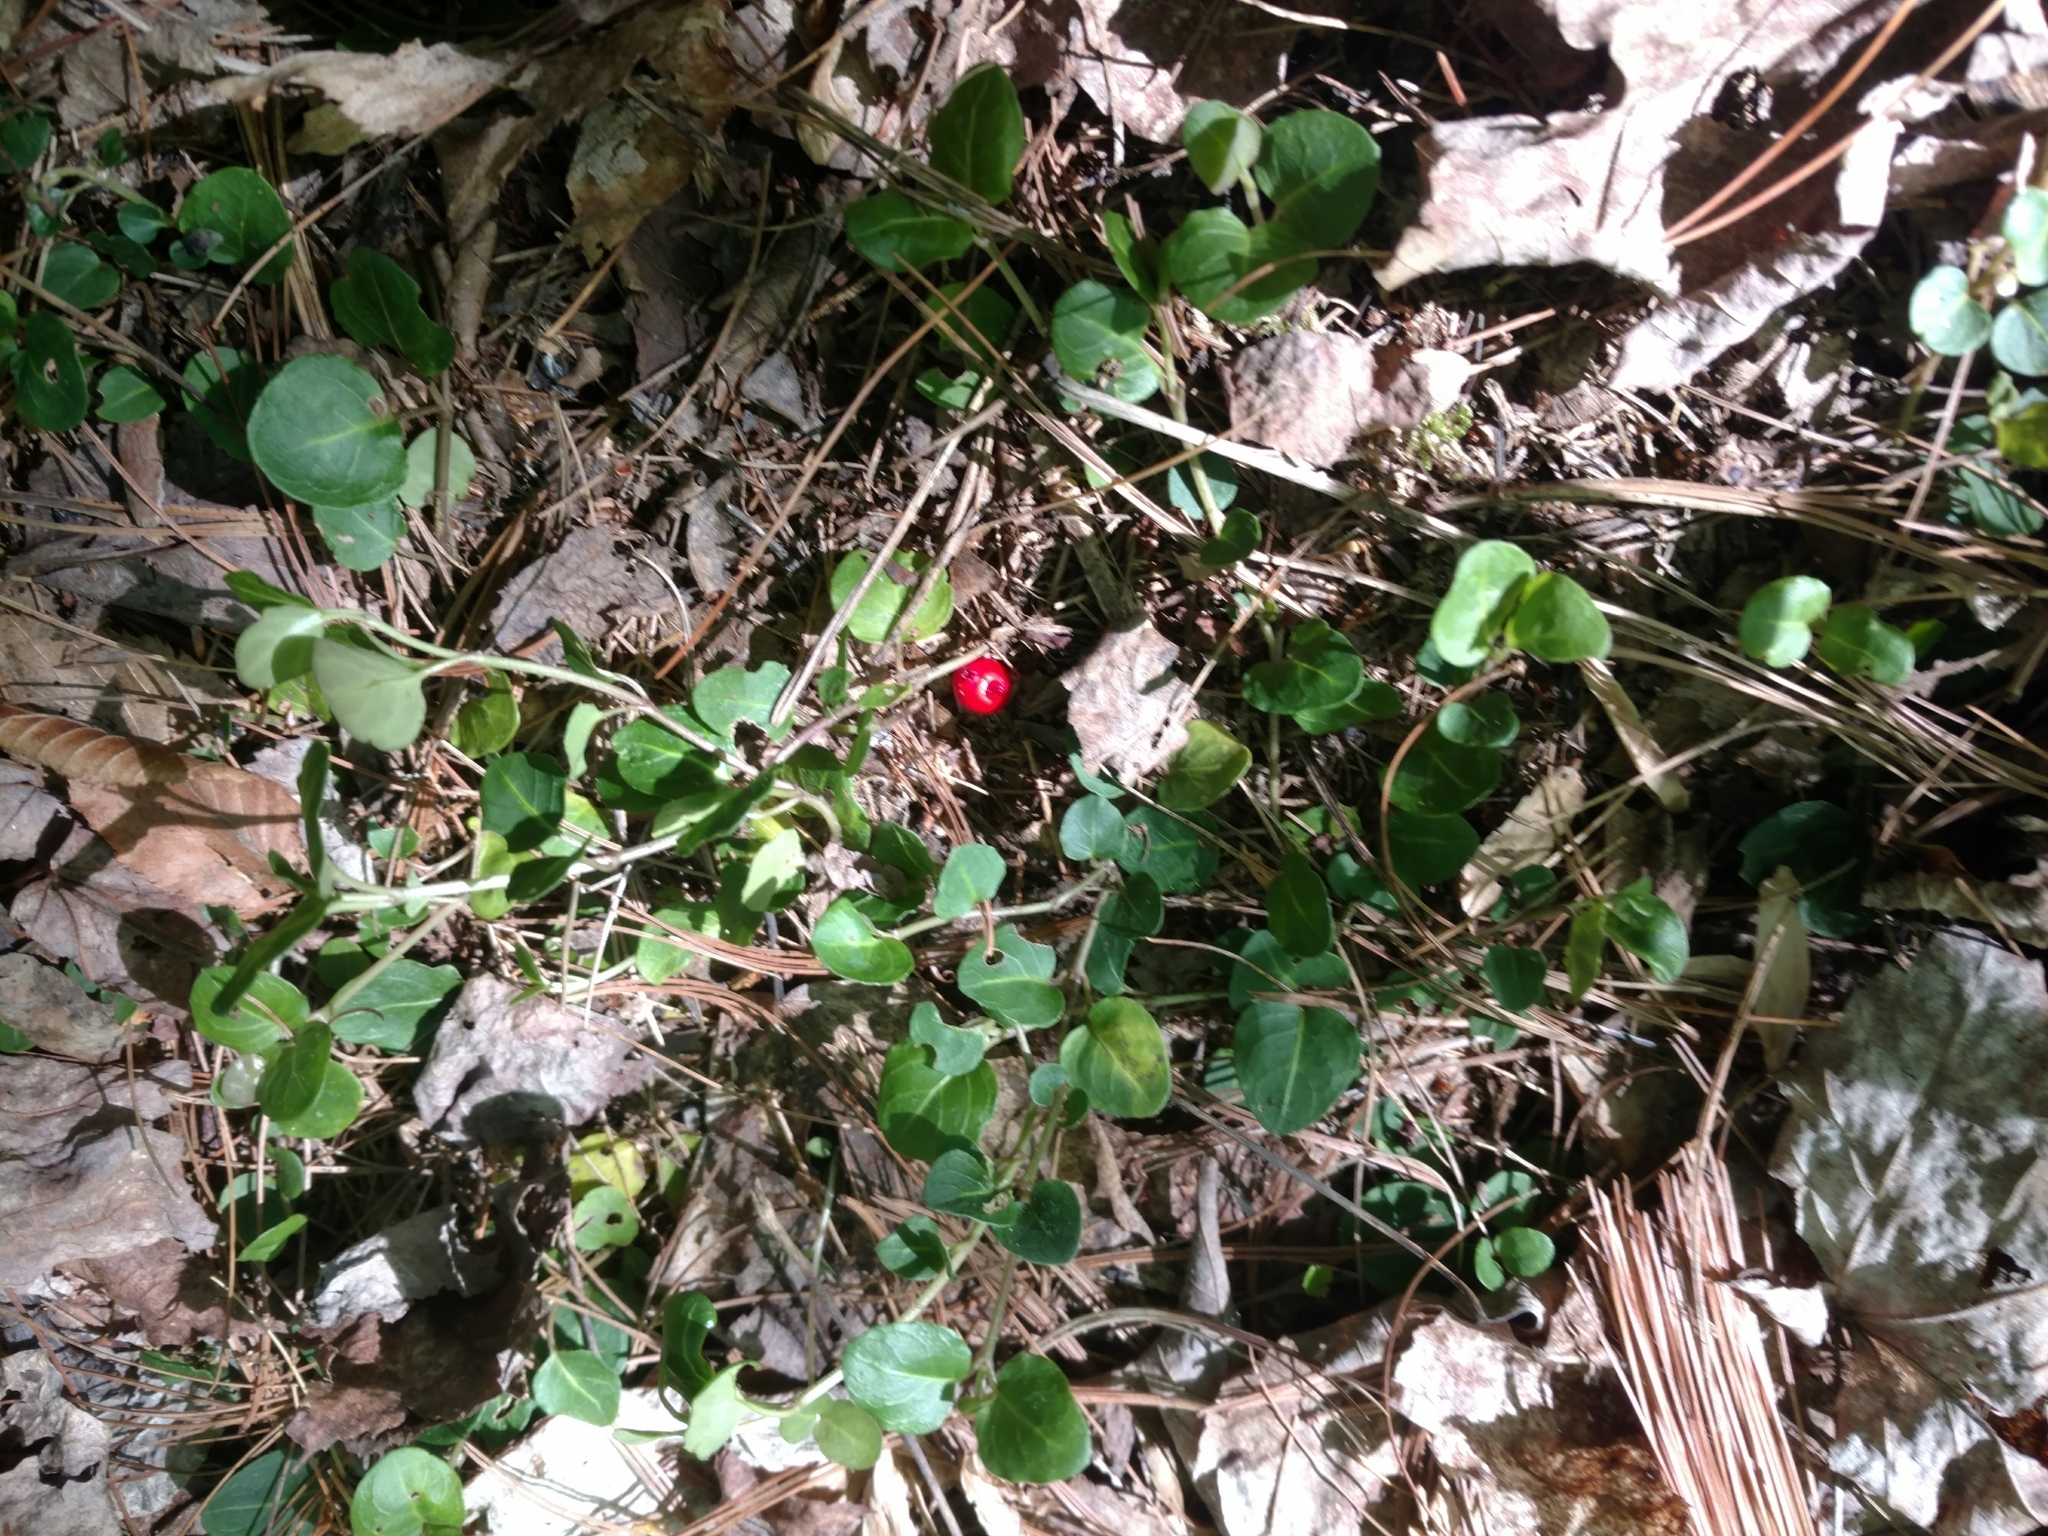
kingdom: Plantae
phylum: Tracheophyta
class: Magnoliopsida
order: Gentianales
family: Rubiaceae
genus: Mitchella
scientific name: Mitchella repens
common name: Partridge-berry
